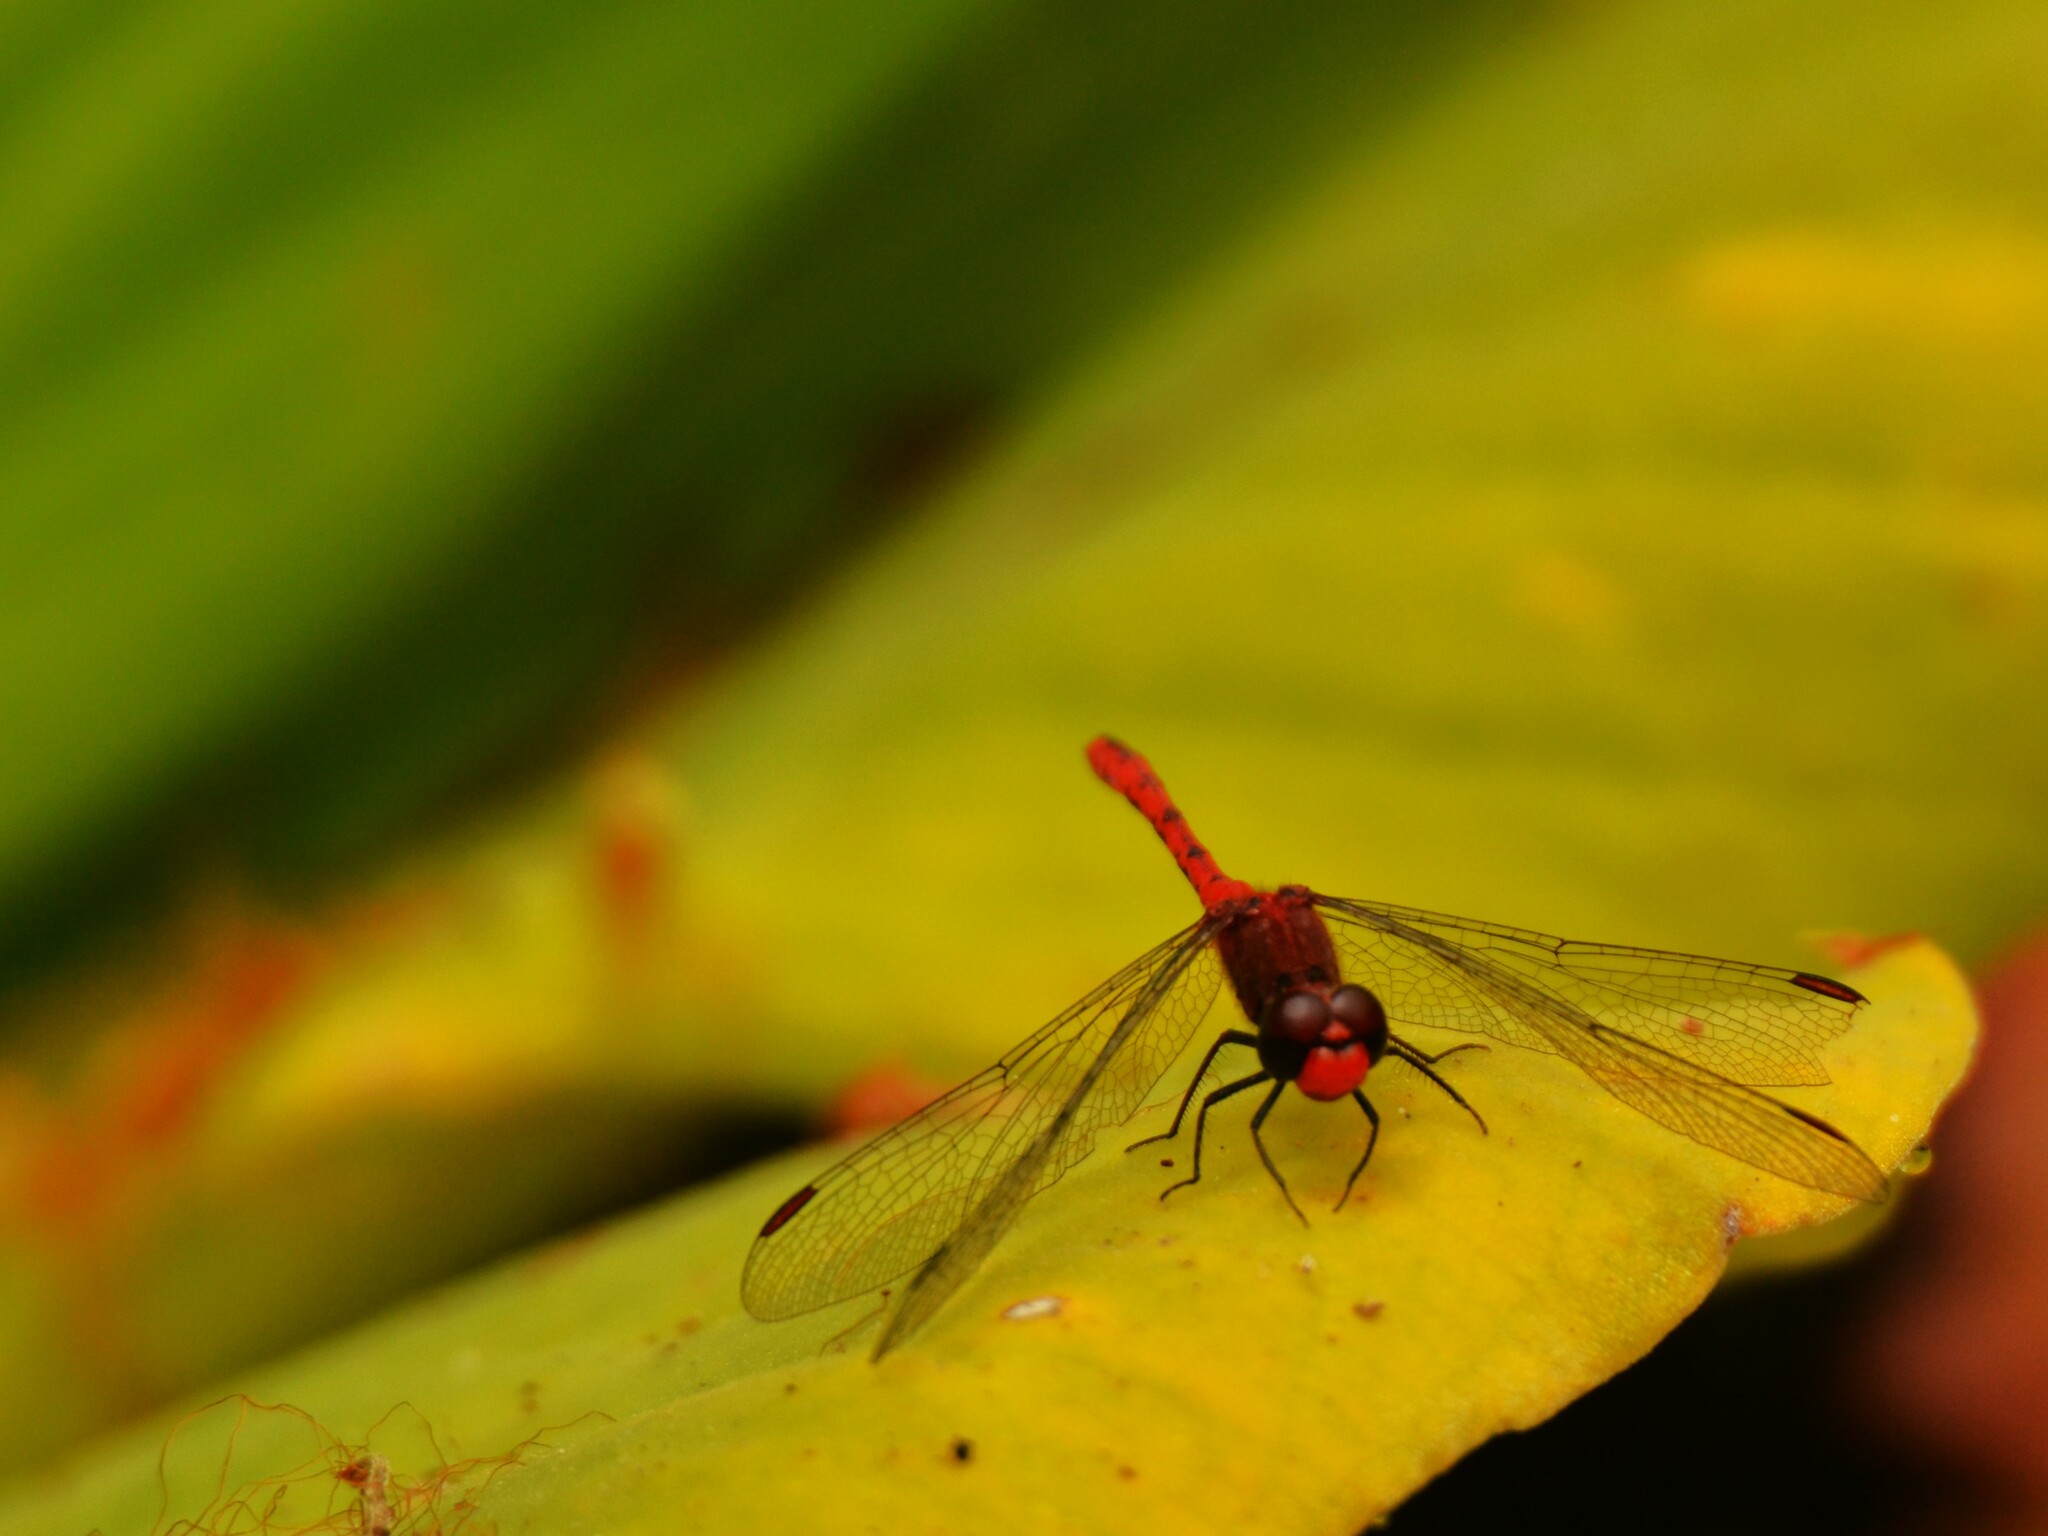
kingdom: Animalia
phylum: Arthropoda
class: Insecta
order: Odonata
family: Libellulidae
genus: Diplacodes
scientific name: Diplacodes bipunctata
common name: Red percher dragonfly
